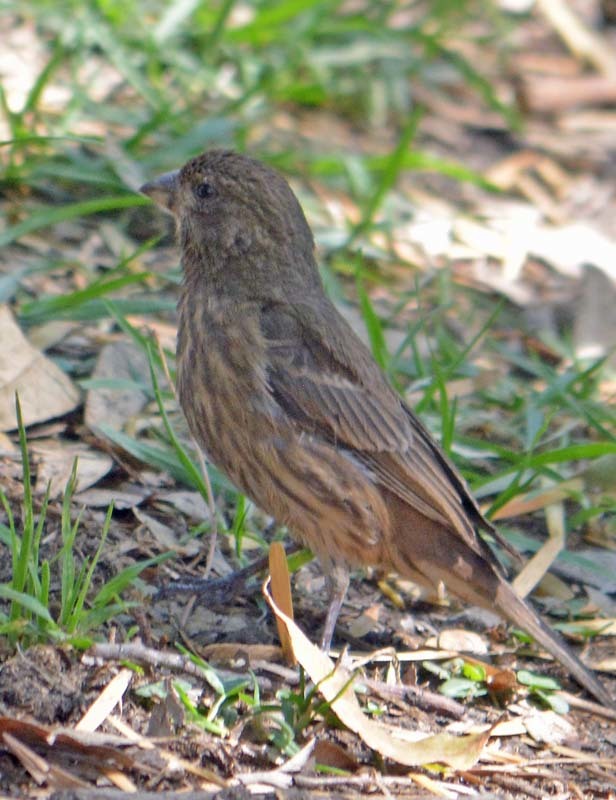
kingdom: Animalia
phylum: Chordata
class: Aves
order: Passeriformes
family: Fringillidae
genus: Haemorhous
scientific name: Haemorhous mexicanus
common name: House finch
